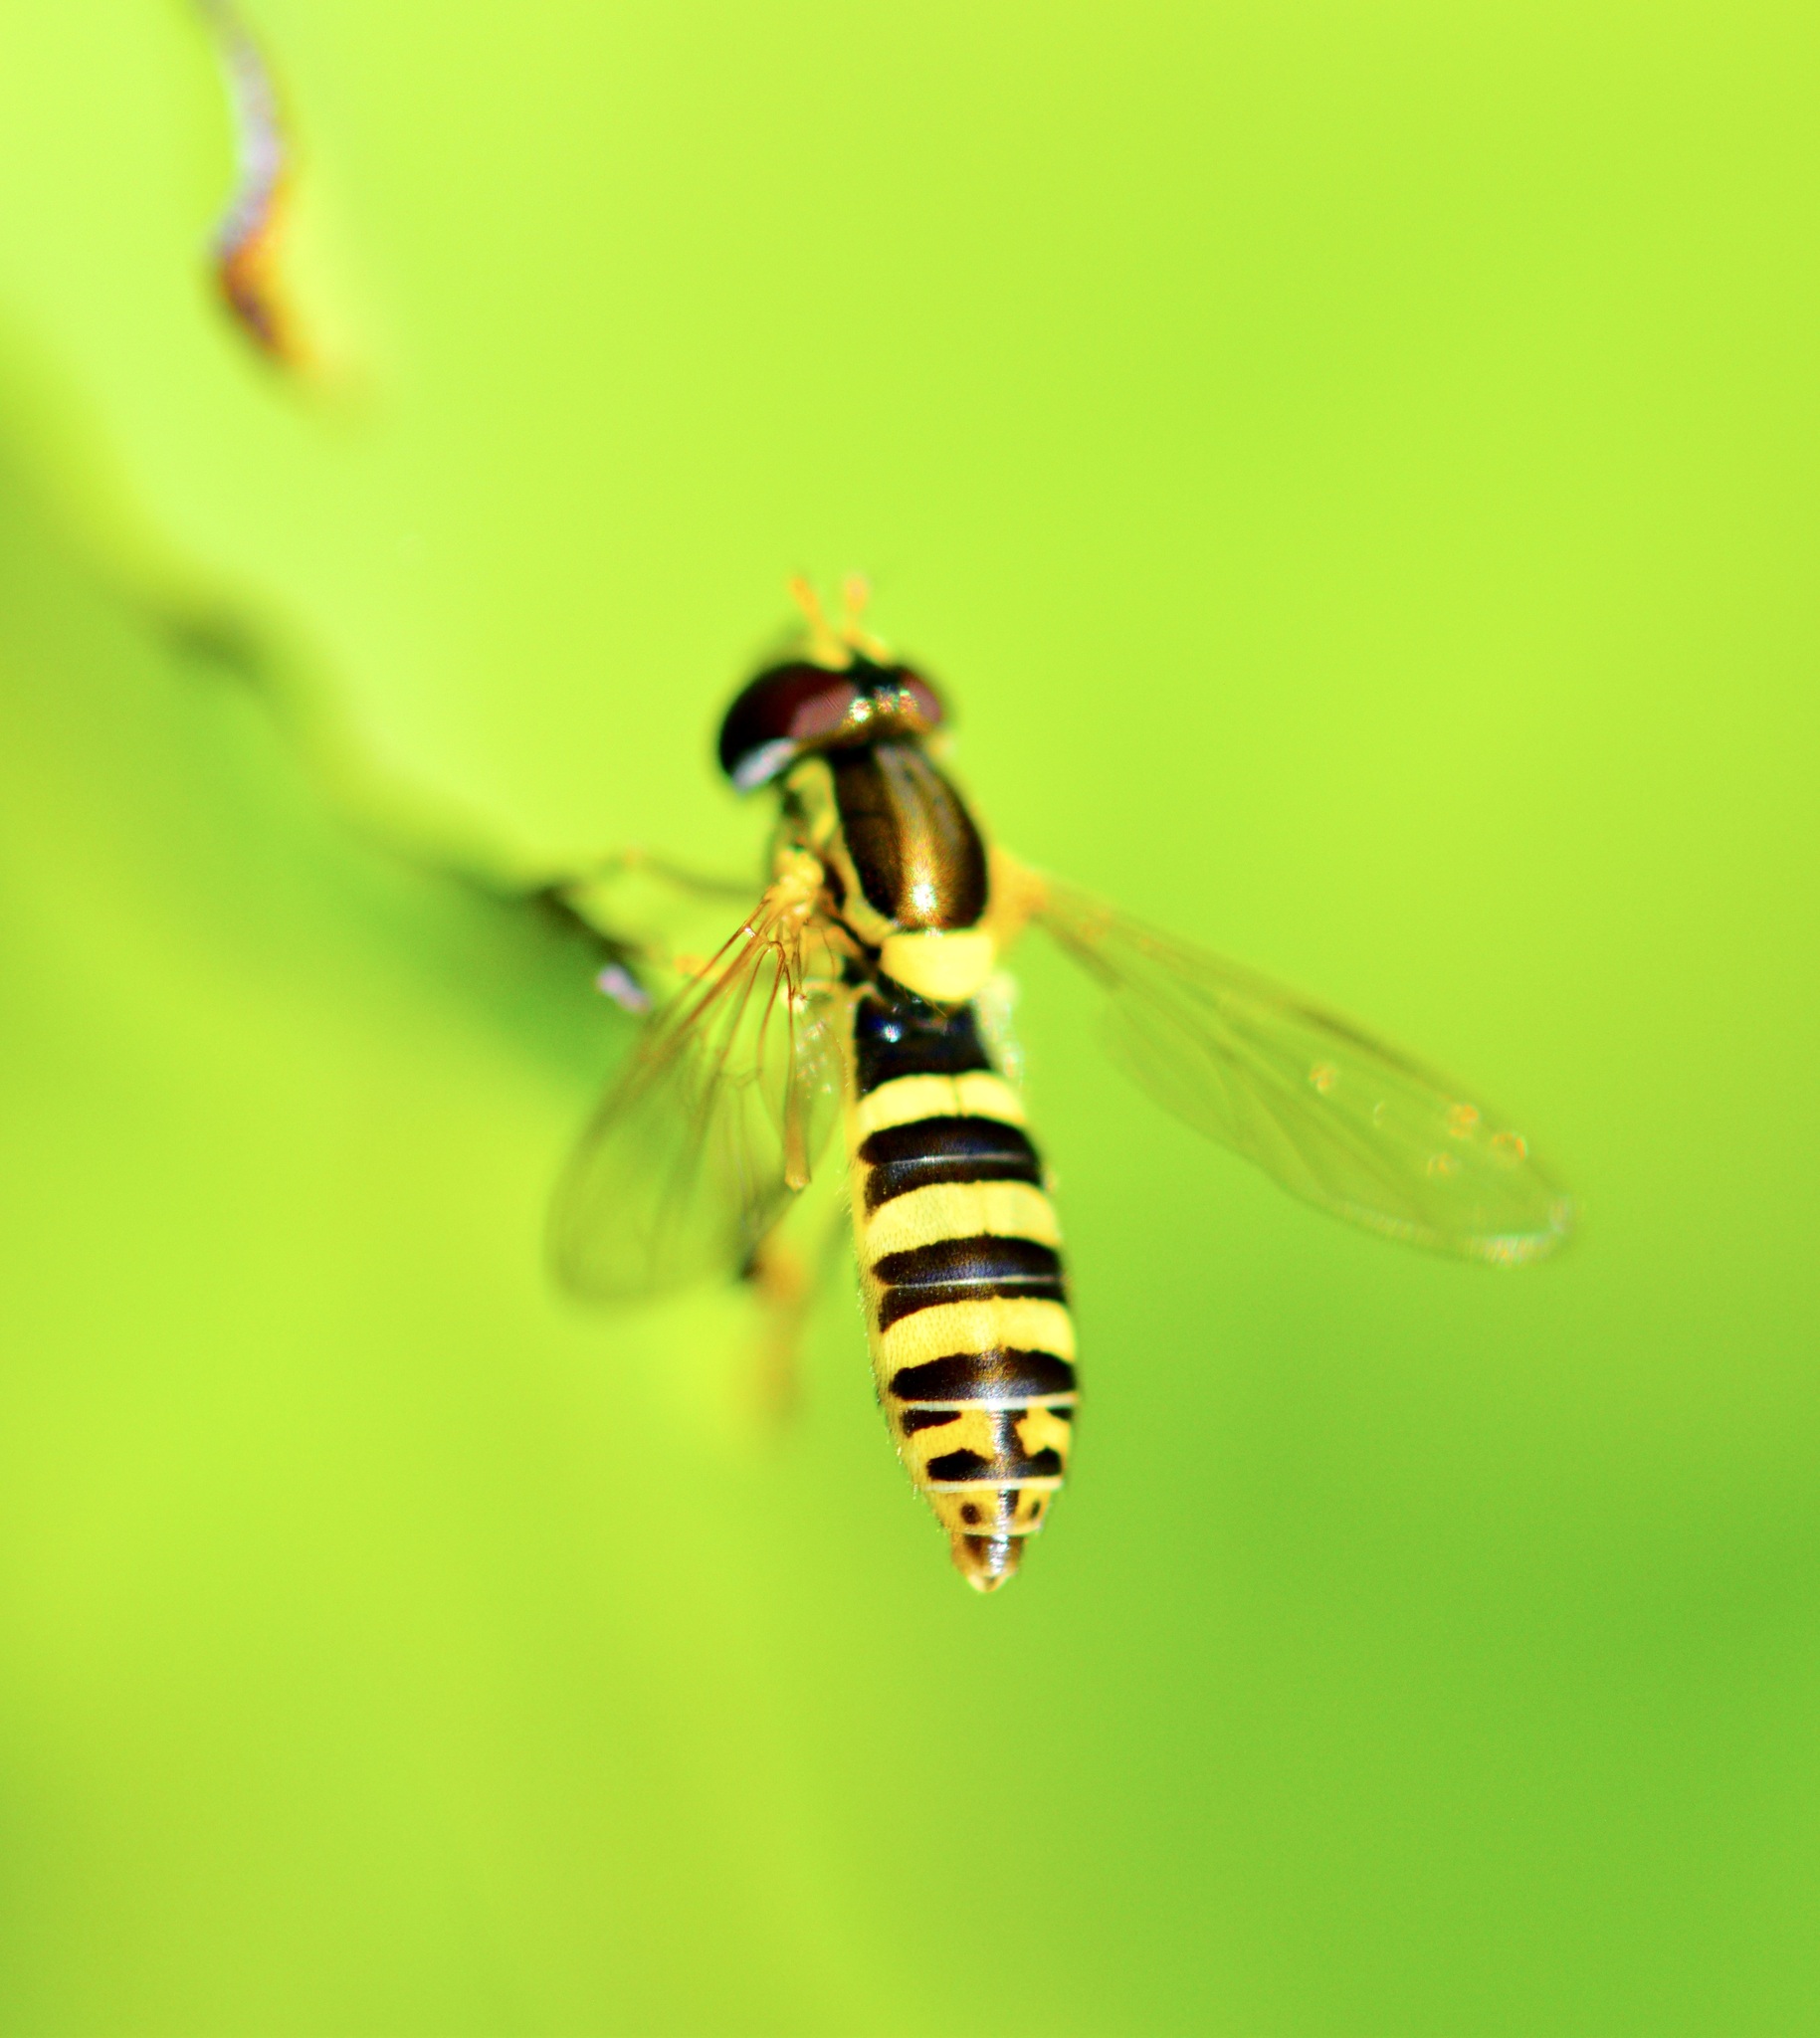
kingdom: Animalia
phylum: Arthropoda
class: Insecta
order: Diptera
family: Syrphidae
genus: Sphaerophoria
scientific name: Sphaerophoria
